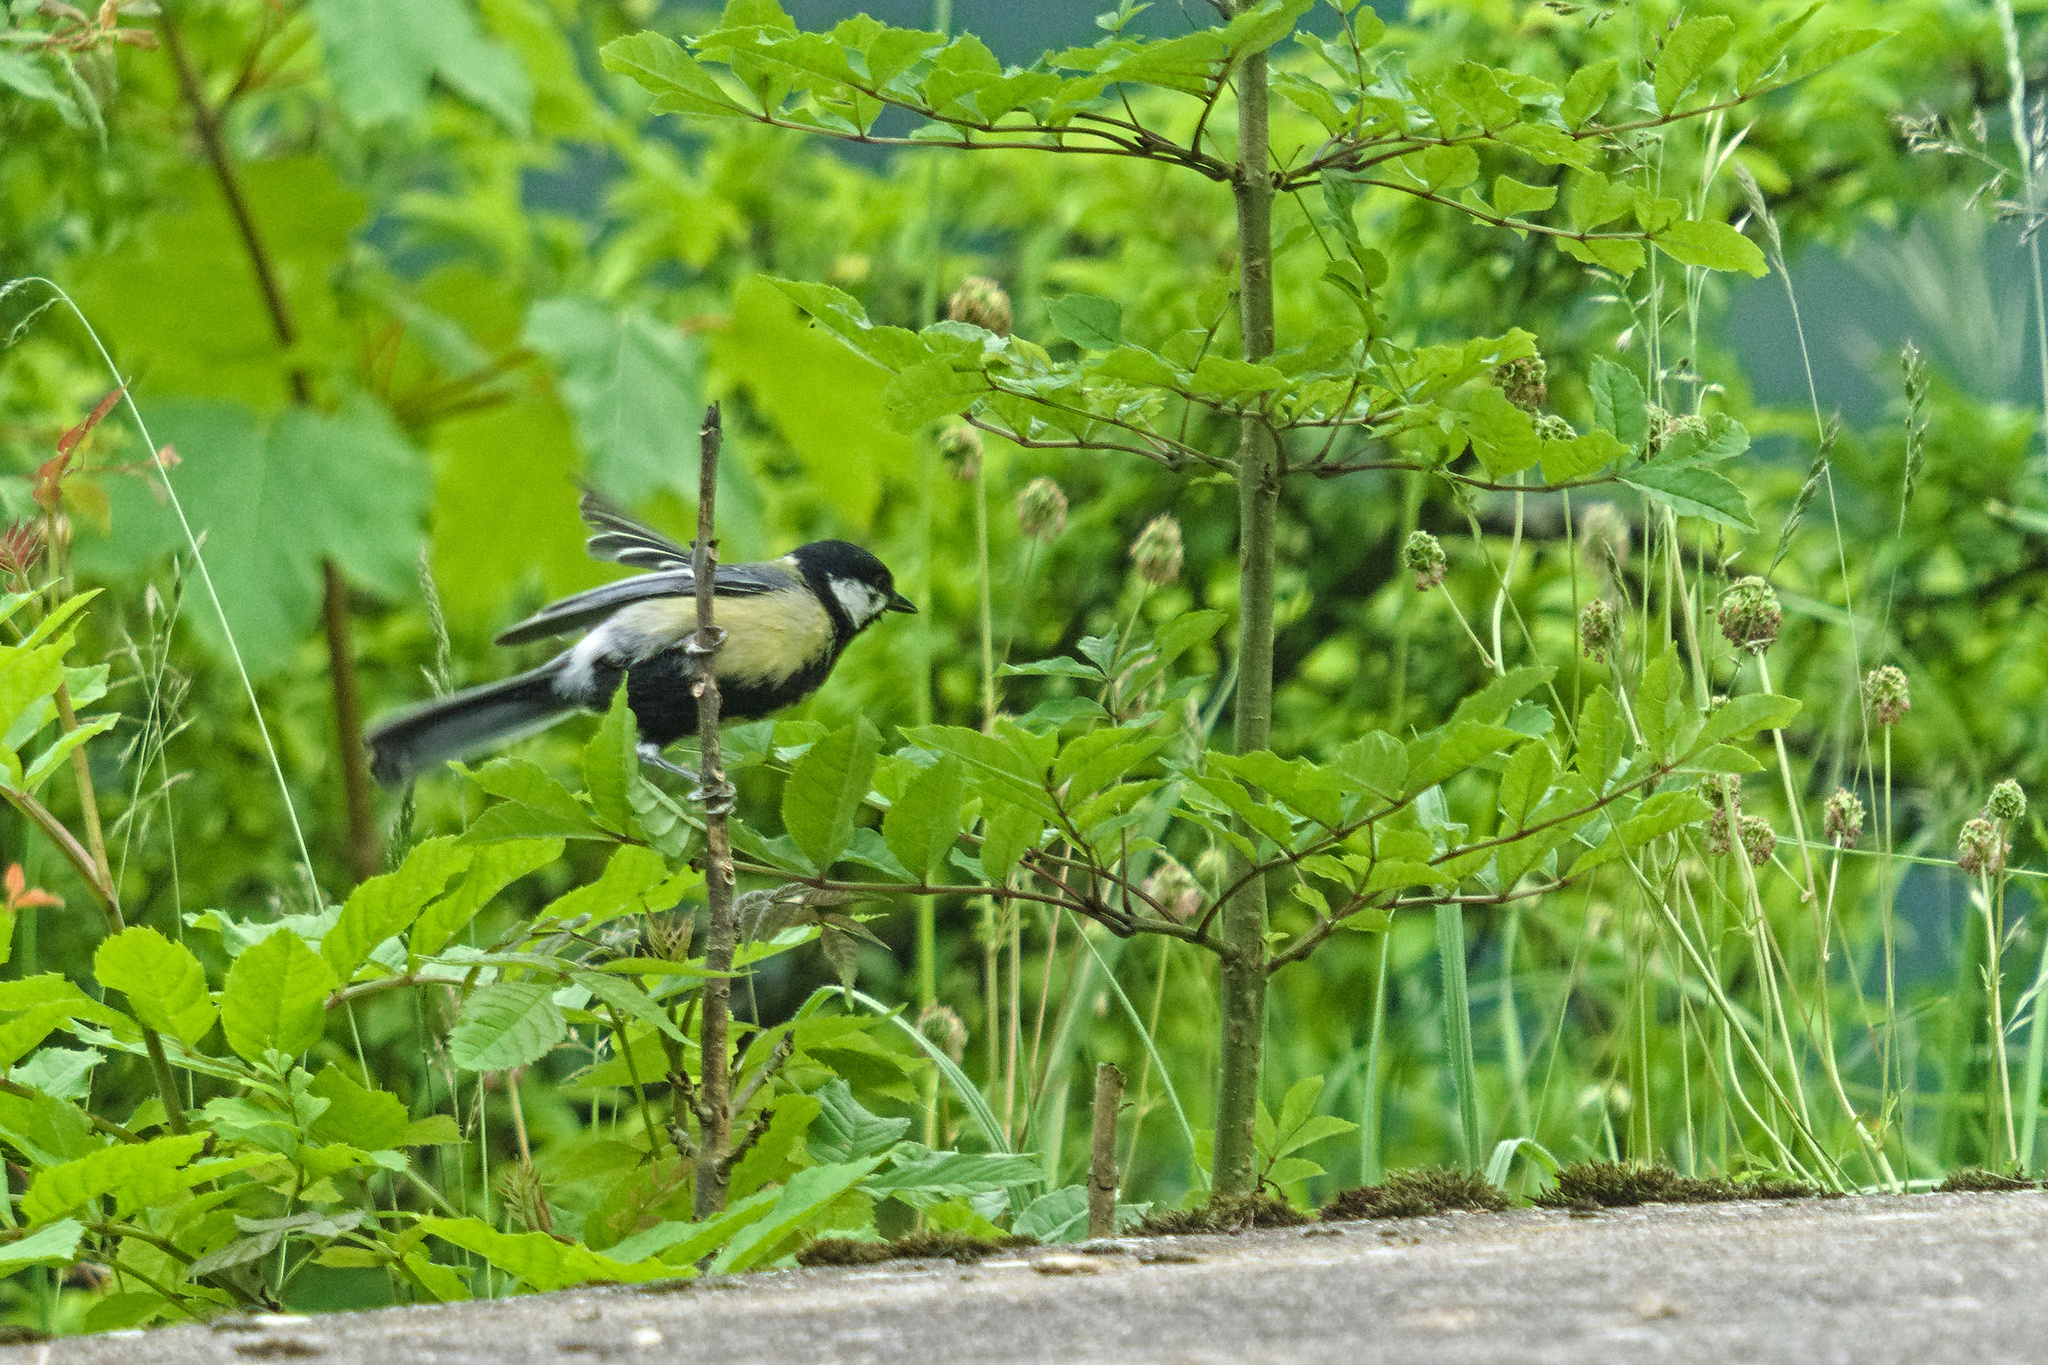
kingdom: Animalia
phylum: Chordata
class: Aves
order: Passeriformes
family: Paridae
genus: Parus
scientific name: Parus major
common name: Great tit
